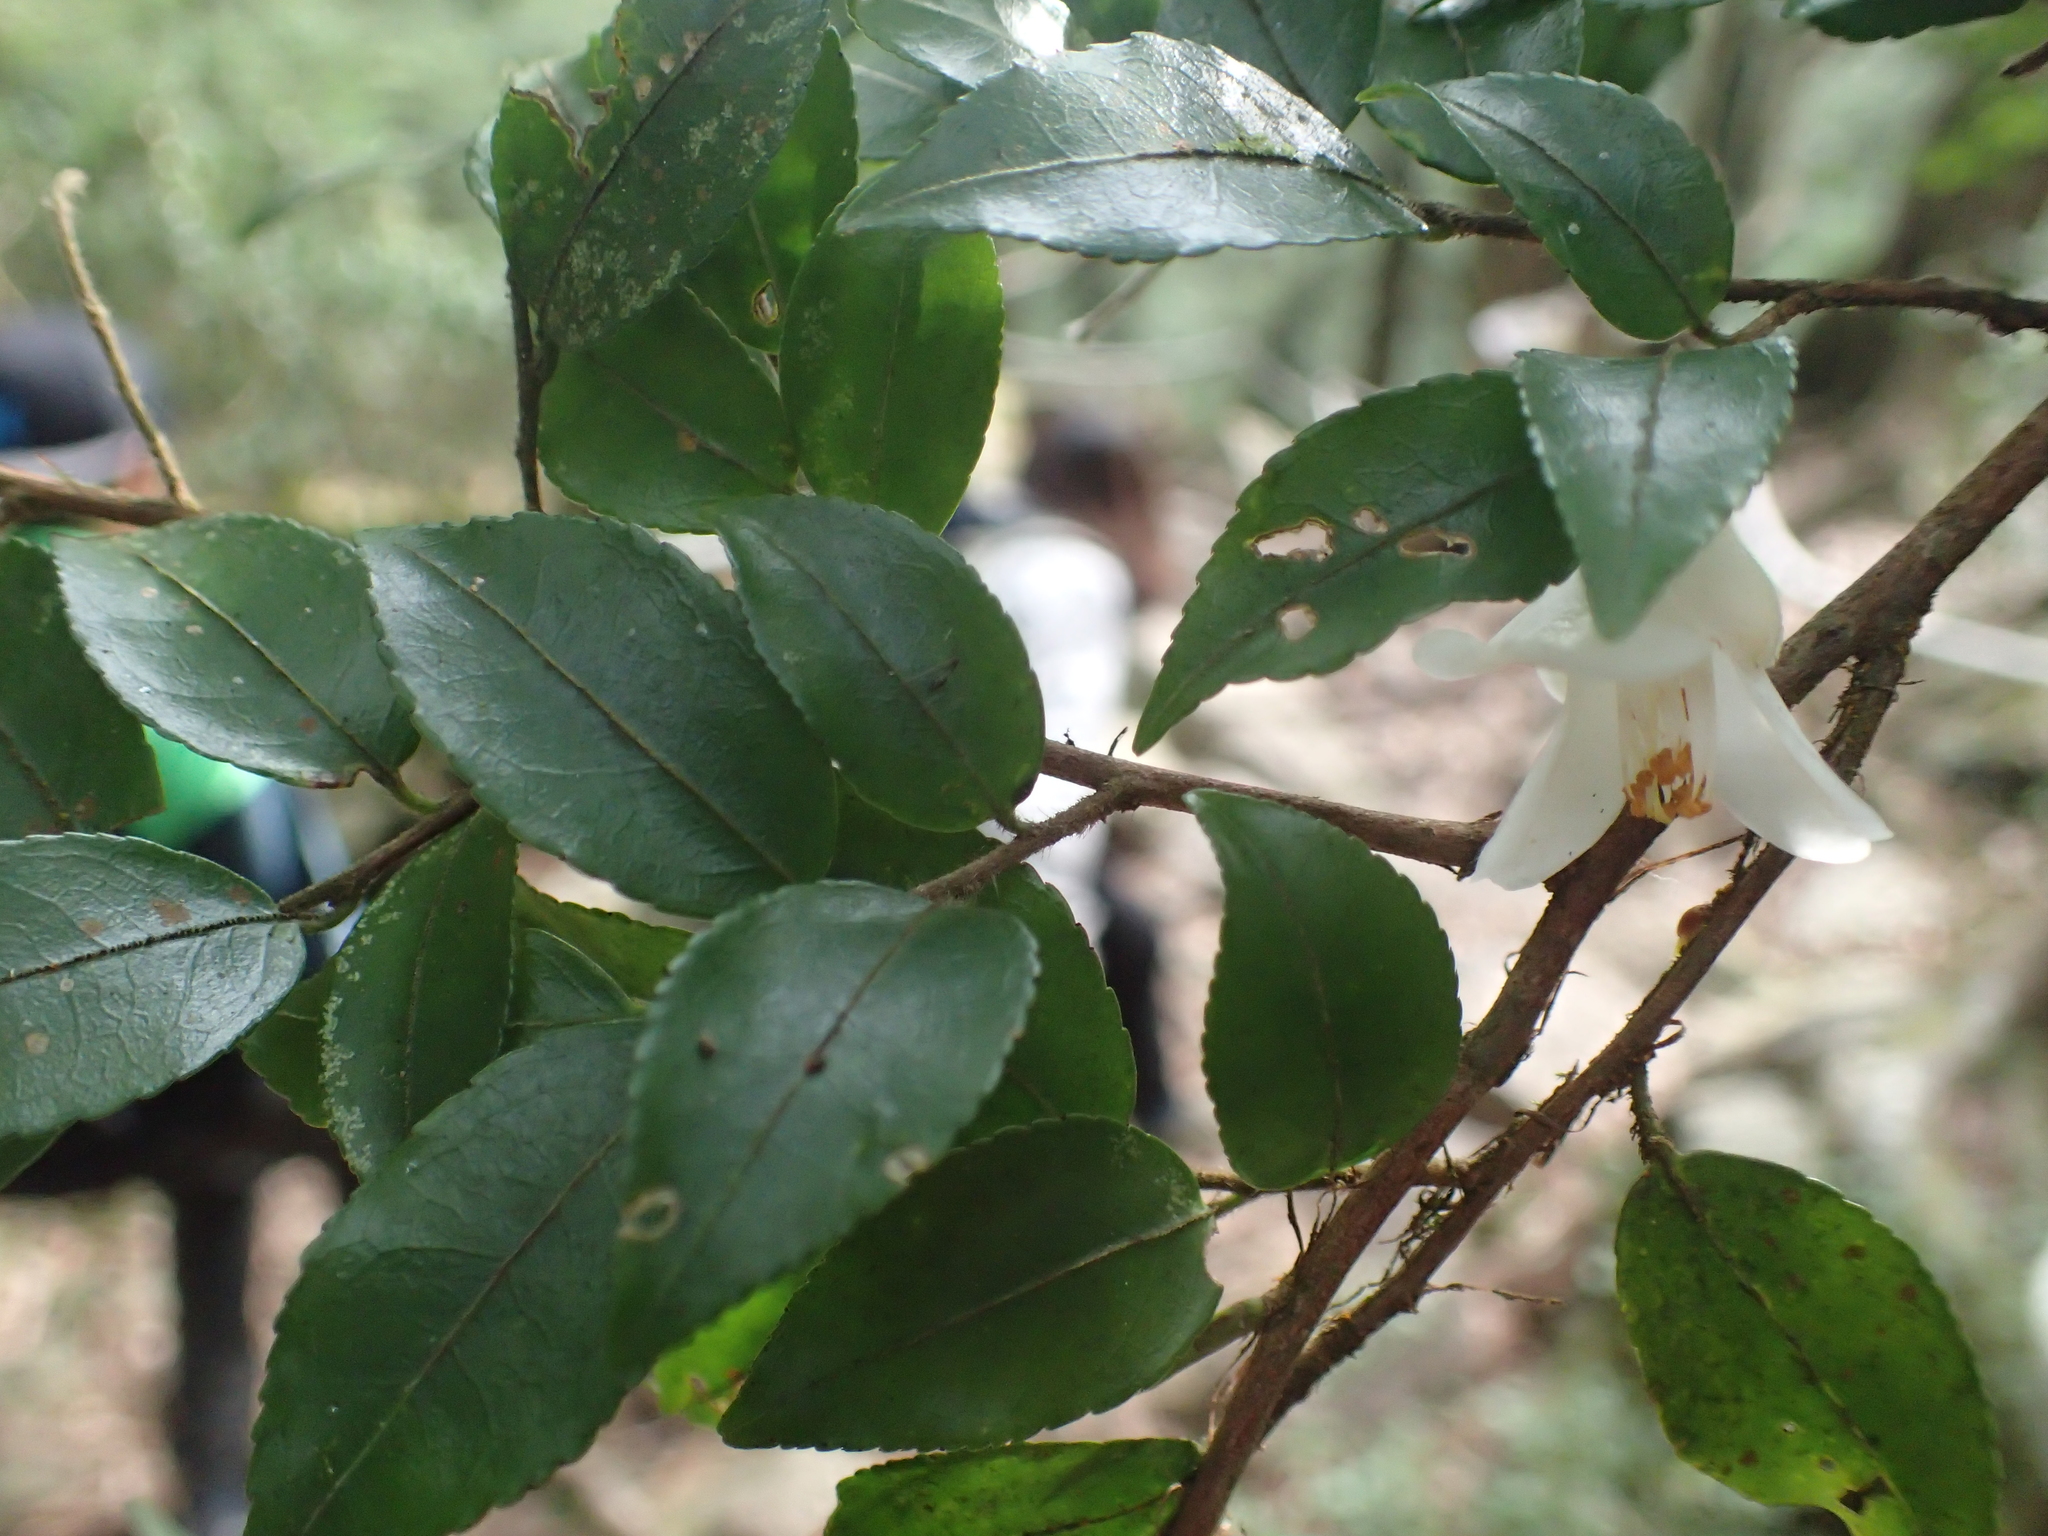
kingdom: Plantae
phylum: Tracheophyta
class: Magnoliopsida
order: Ericales
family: Theaceae
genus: Camellia
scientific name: Camellia lutchuensis
